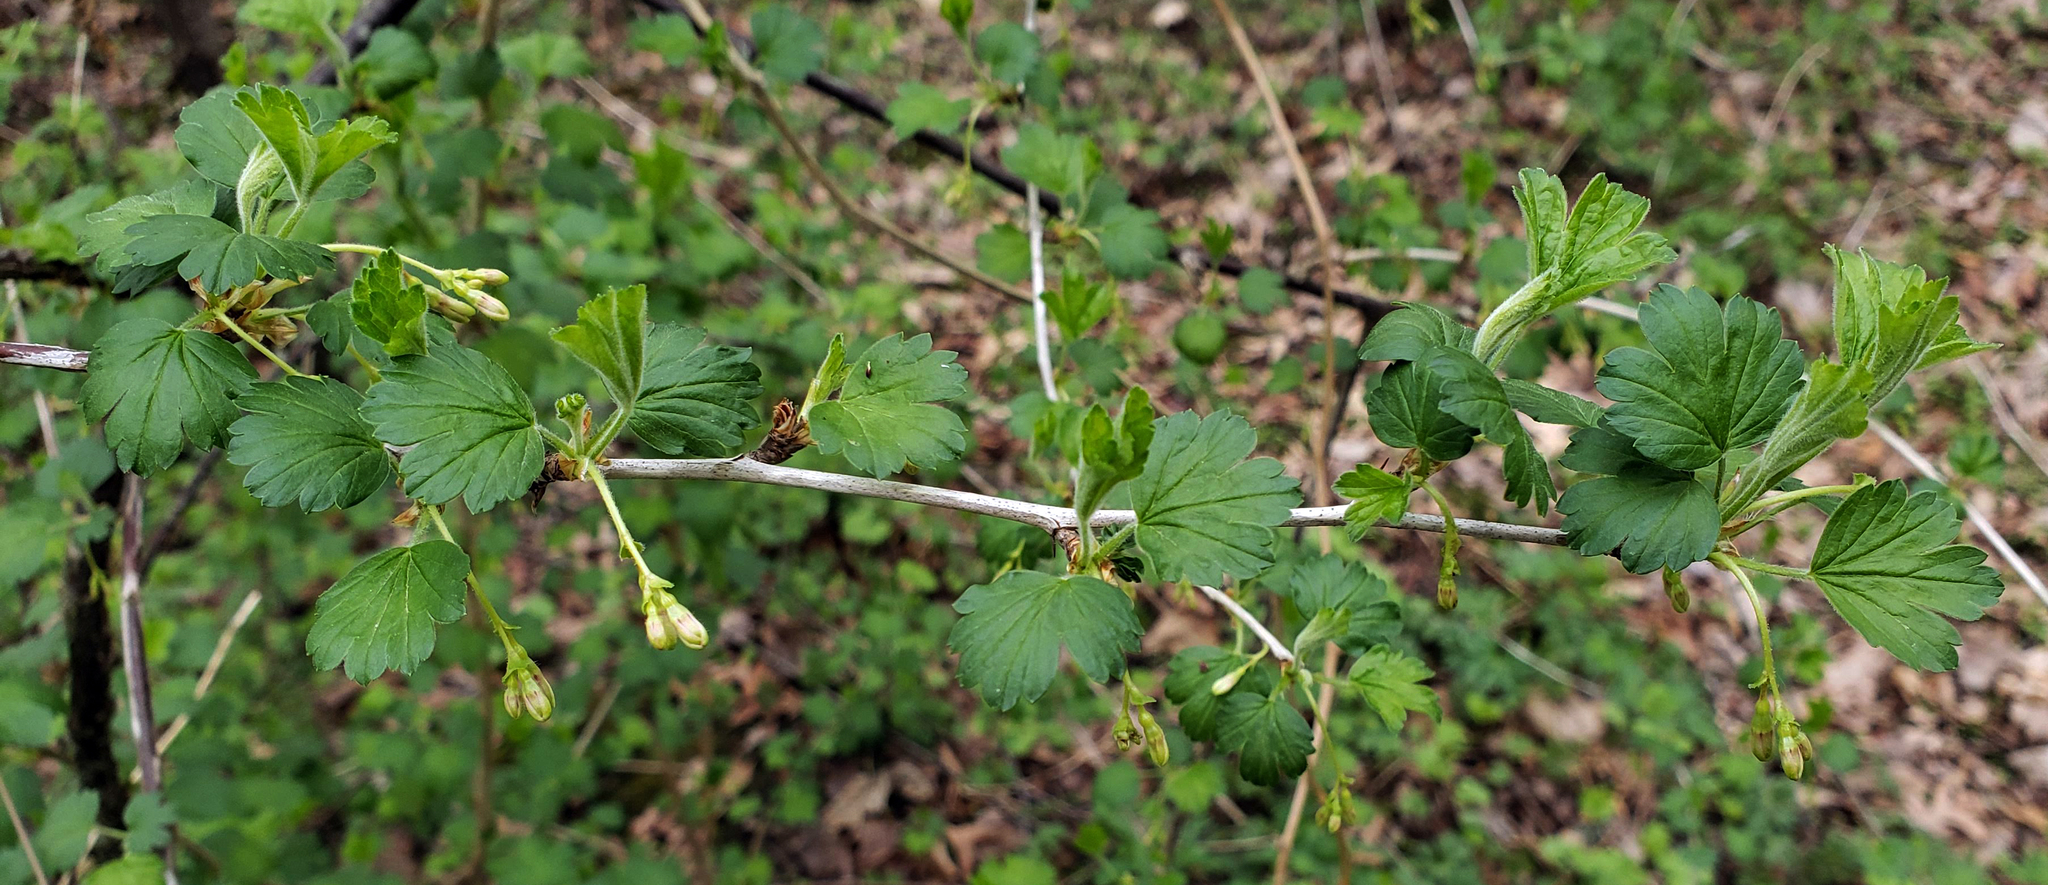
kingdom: Plantae
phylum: Tracheophyta
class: Magnoliopsida
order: Saxifragales
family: Grossulariaceae
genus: Ribes
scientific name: Ribes missouriense
